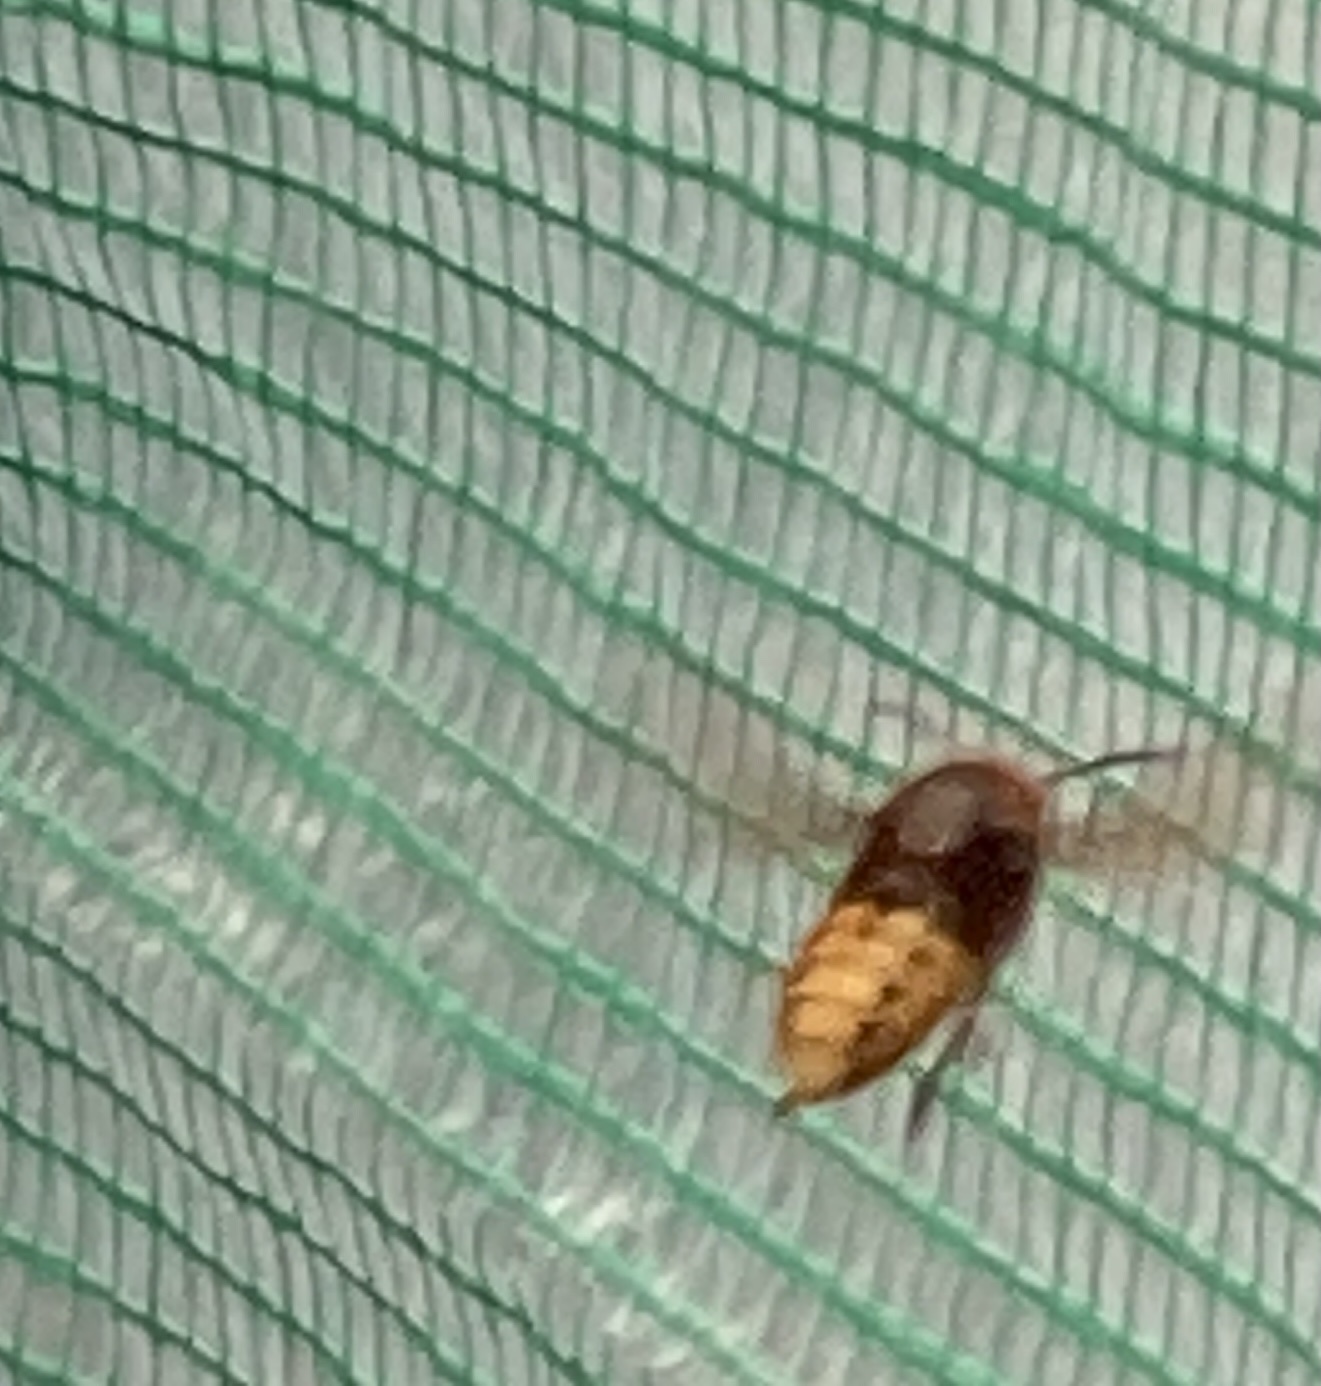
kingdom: Animalia
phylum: Arthropoda
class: Insecta
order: Hymenoptera
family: Vespidae
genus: Vespa
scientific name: Vespa crabro
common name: Hornet
